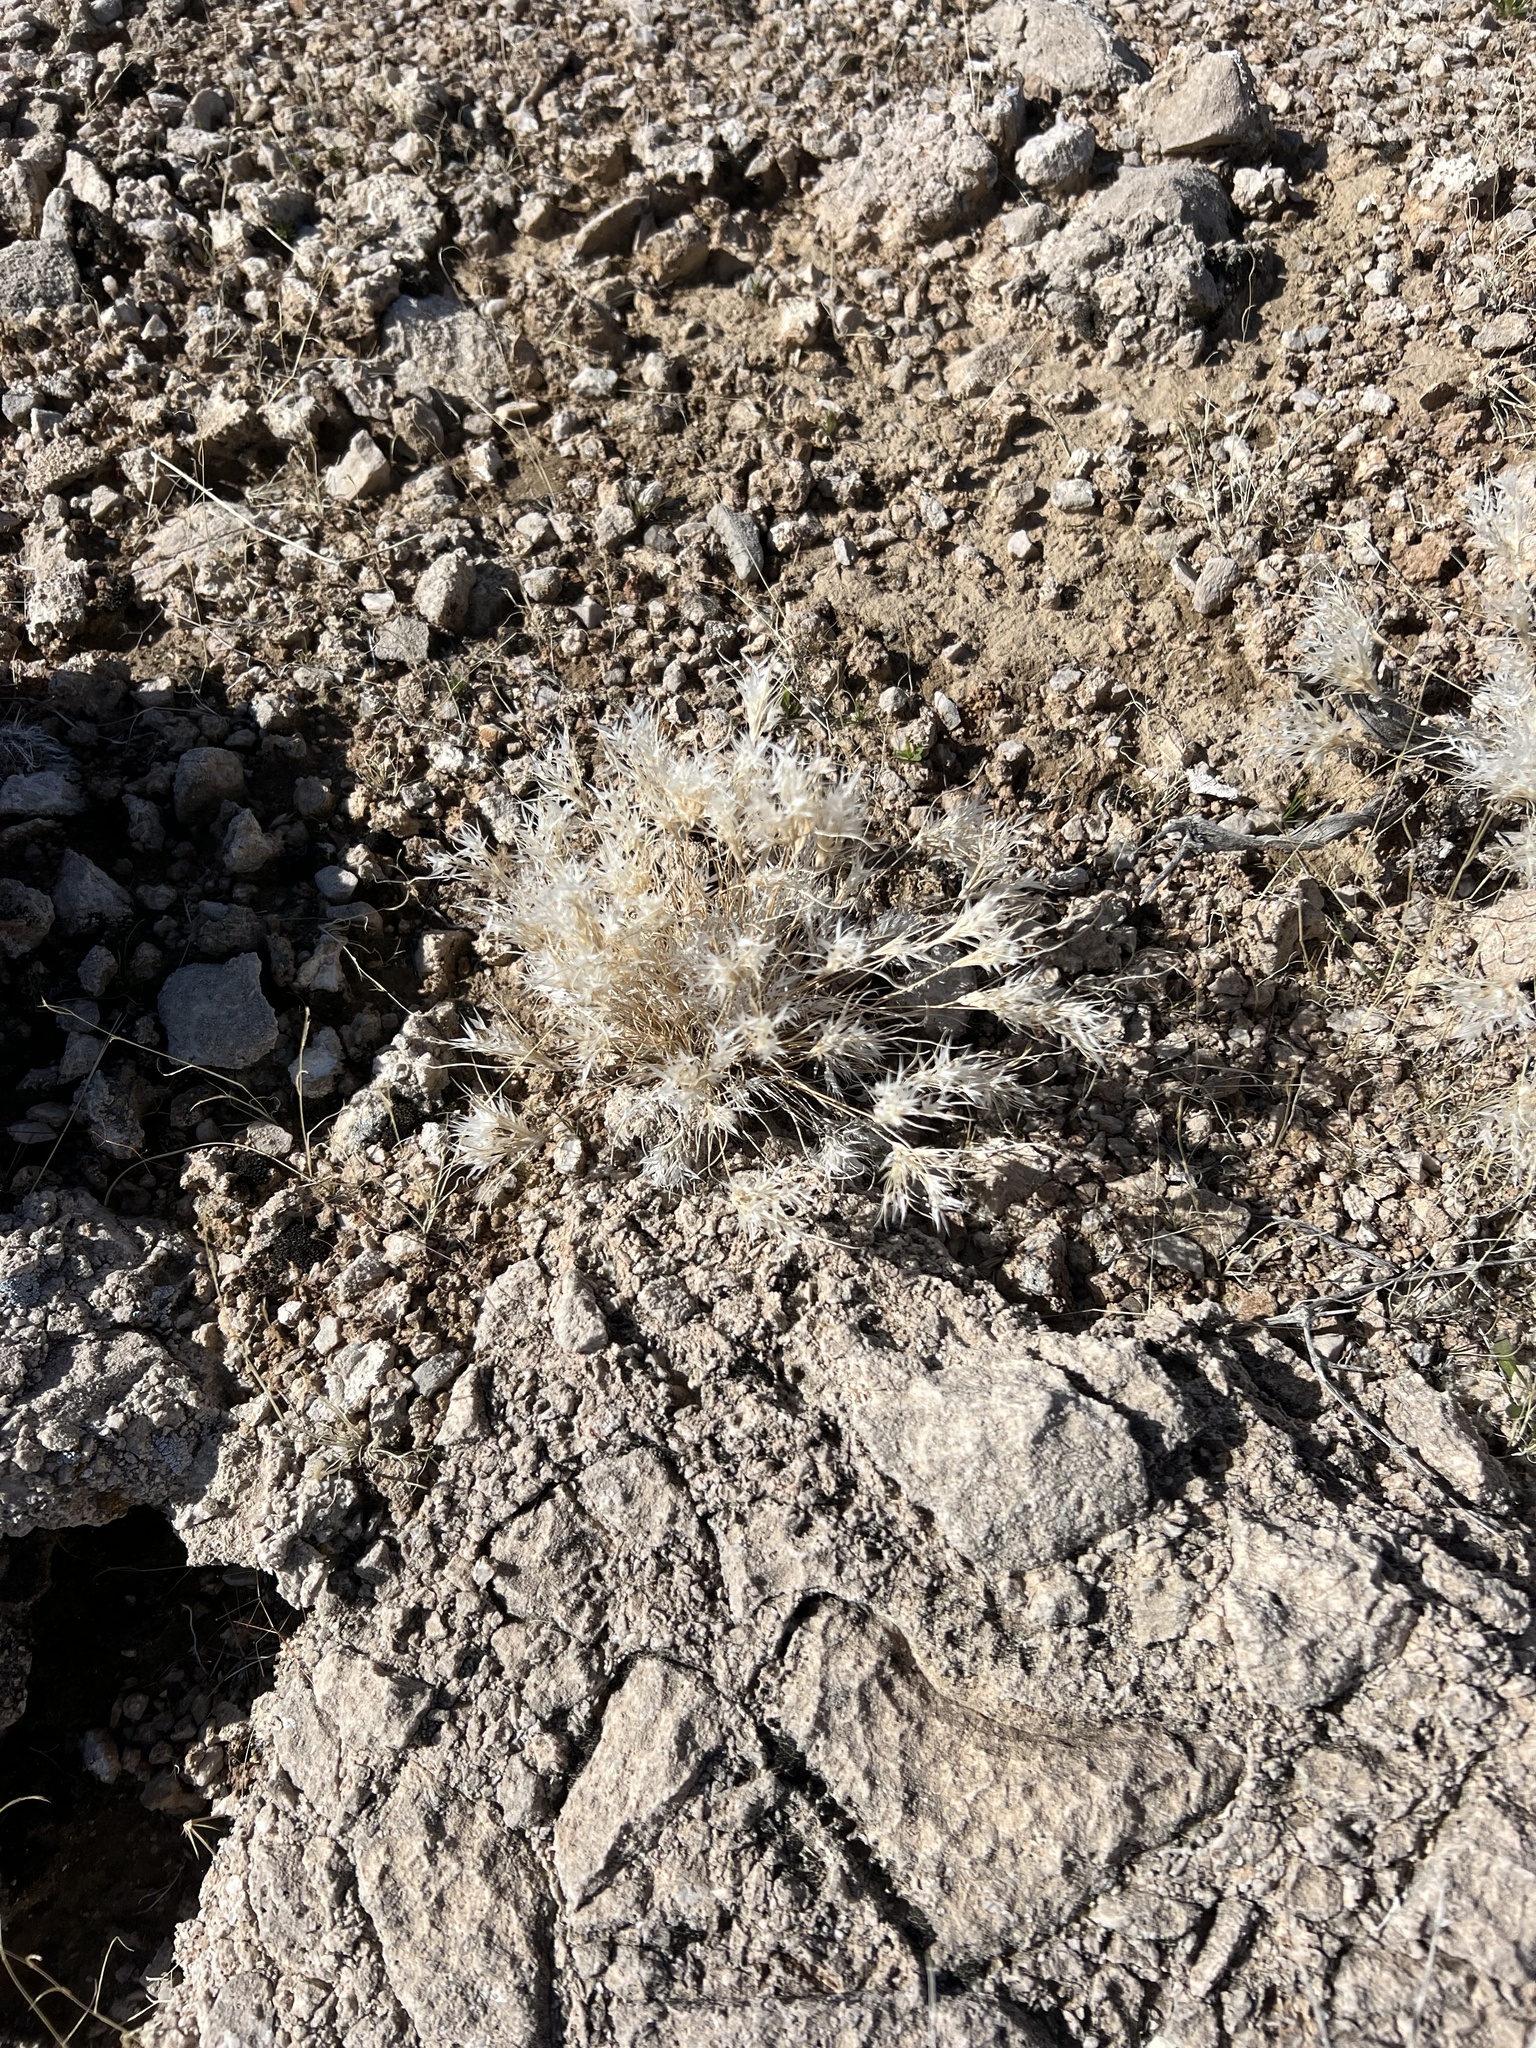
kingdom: Plantae
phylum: Tracheophyta
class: Liliopsida
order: Poales
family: Poaceae
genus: Dasyochloa
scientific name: Dasyochloa pulchella
